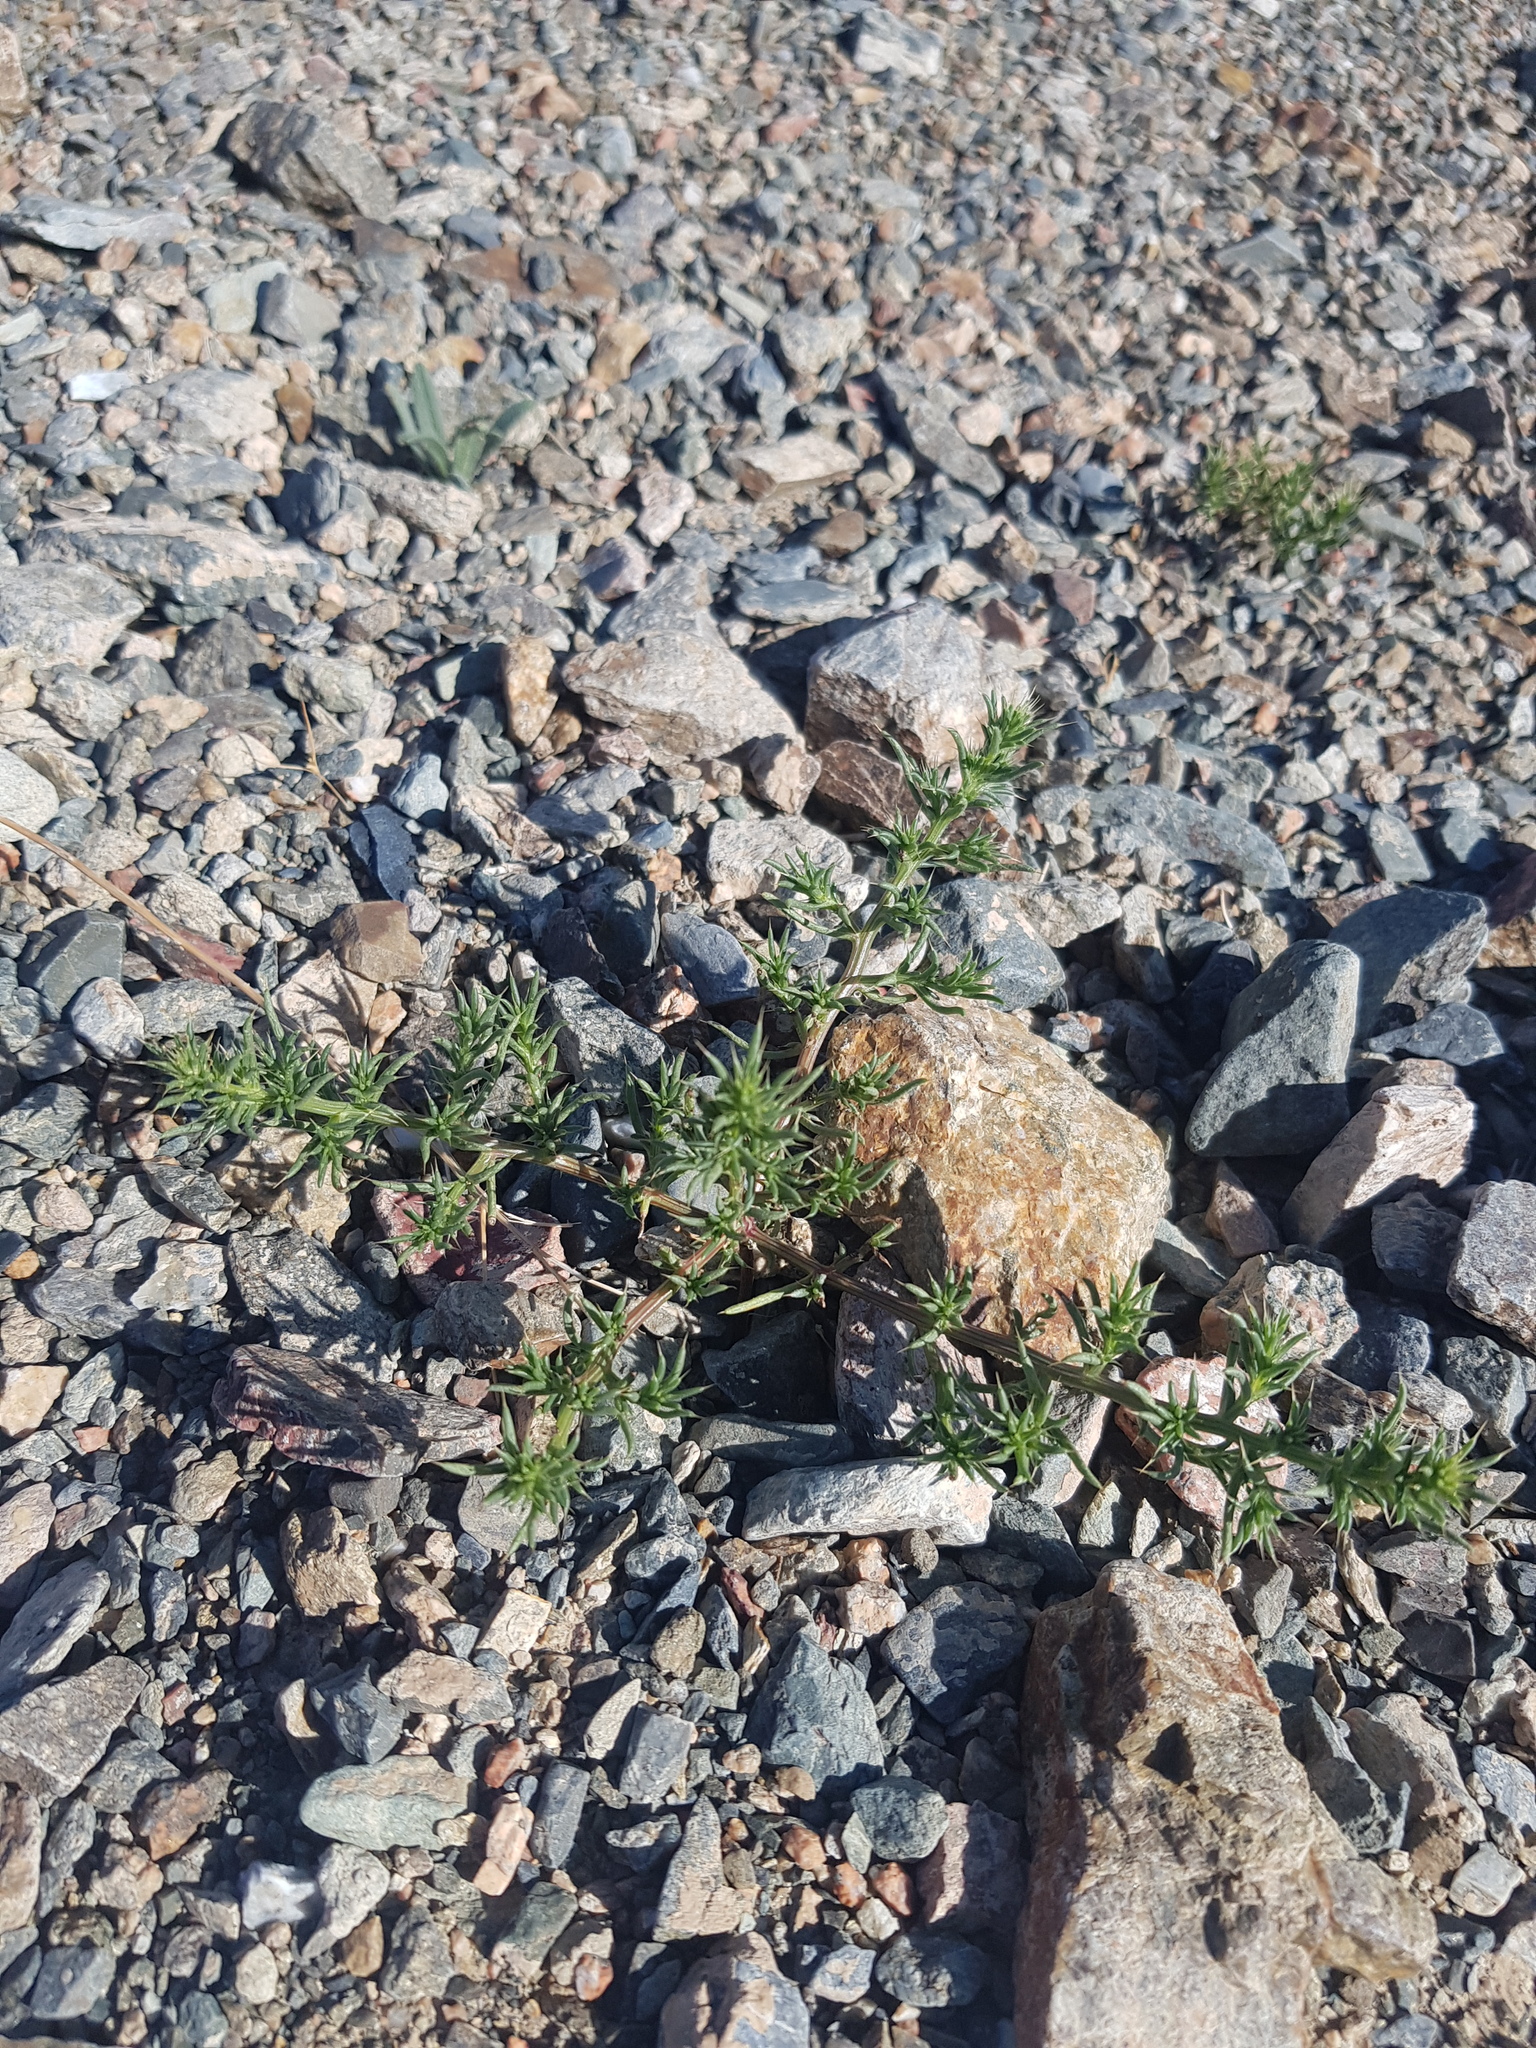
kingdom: Plantae
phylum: Tracheophyta
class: Magnoliopsida
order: Caryophyllales
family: Amaranthaceae
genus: Salsola
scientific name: Salsola collina
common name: Tumbleweed
